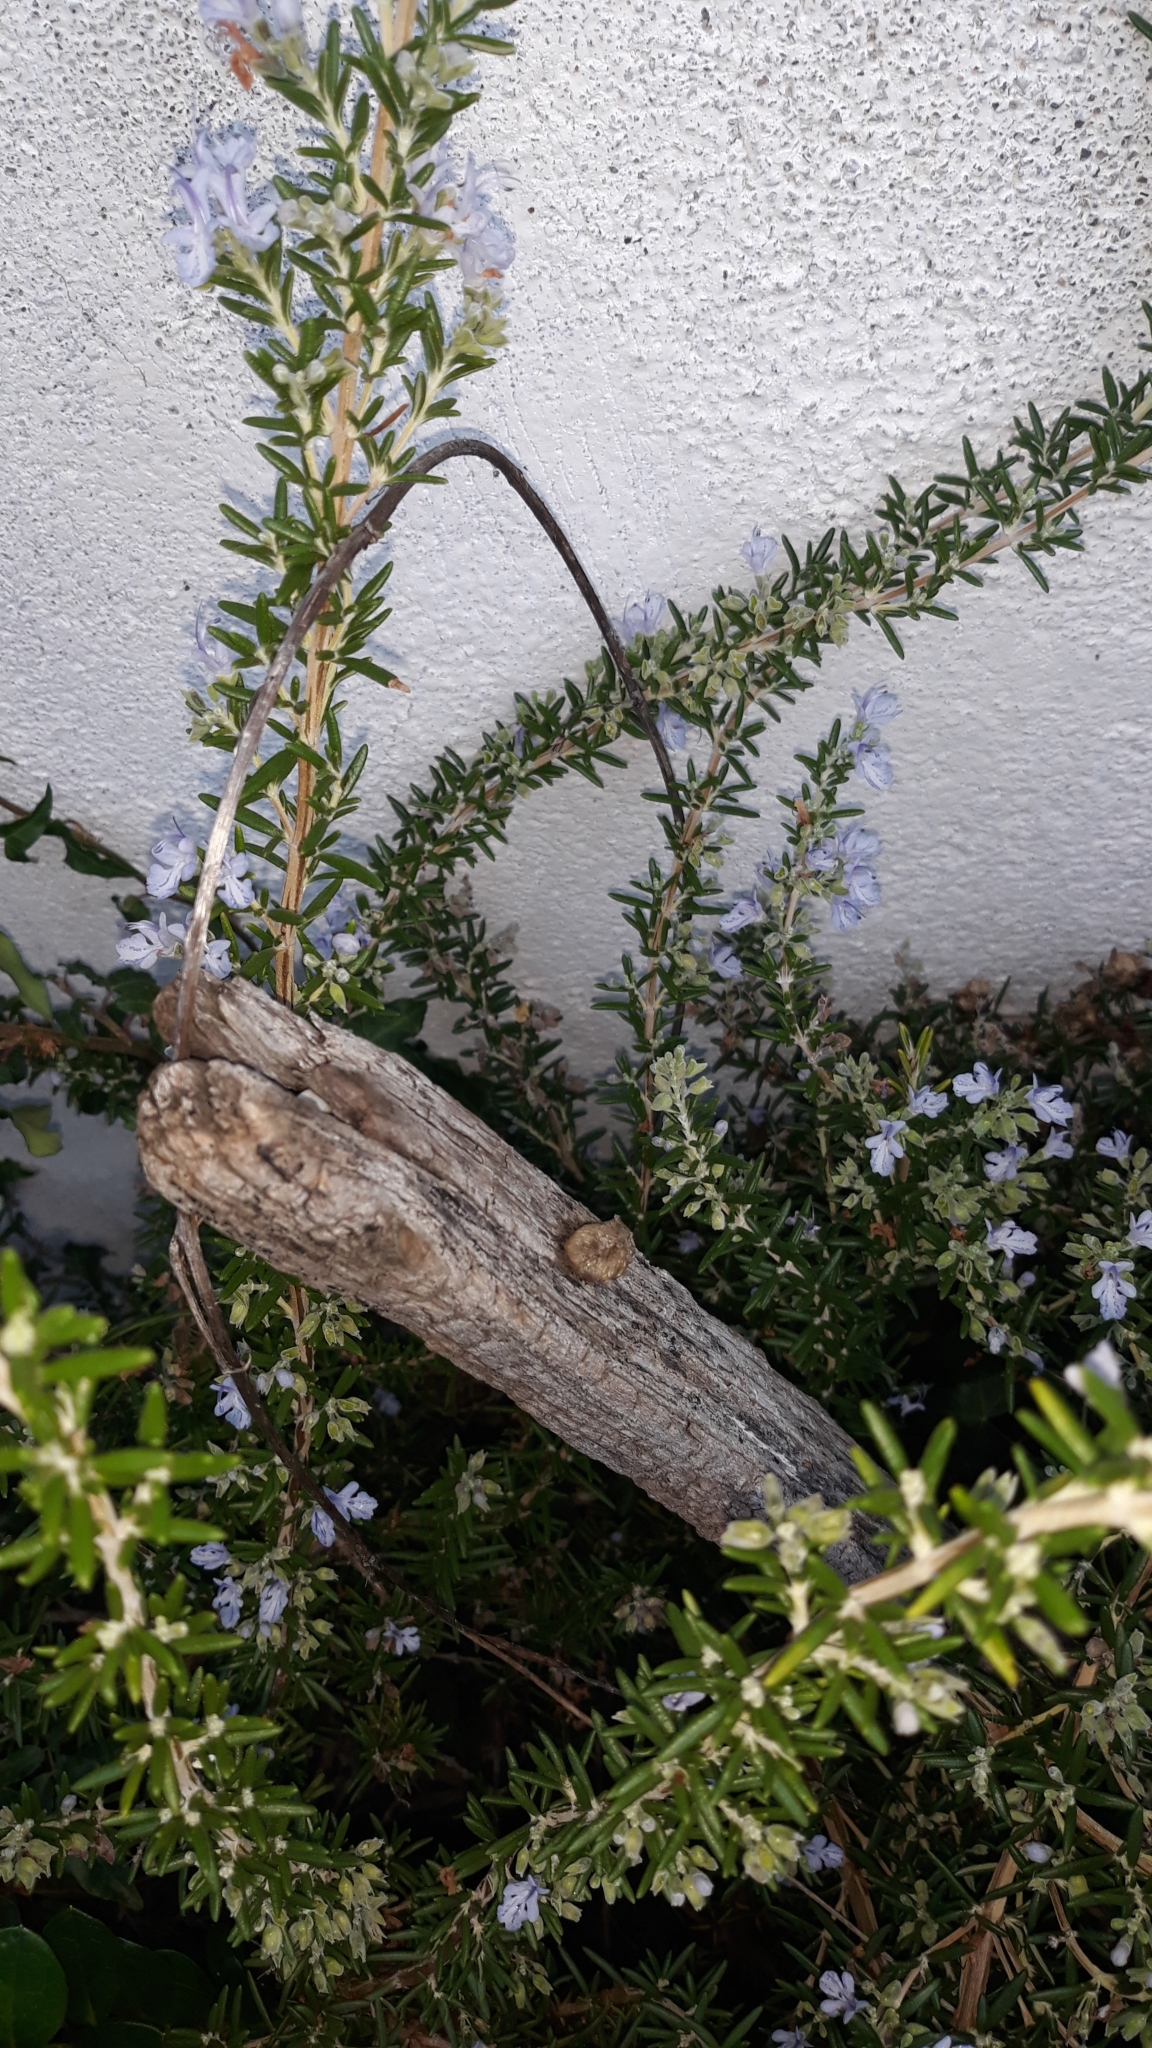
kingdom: Animalia
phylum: Arthropoda
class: Insecta
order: Mantodea
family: Mantidae
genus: Mantis
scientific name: Mantis religiosa
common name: Praying mantis
